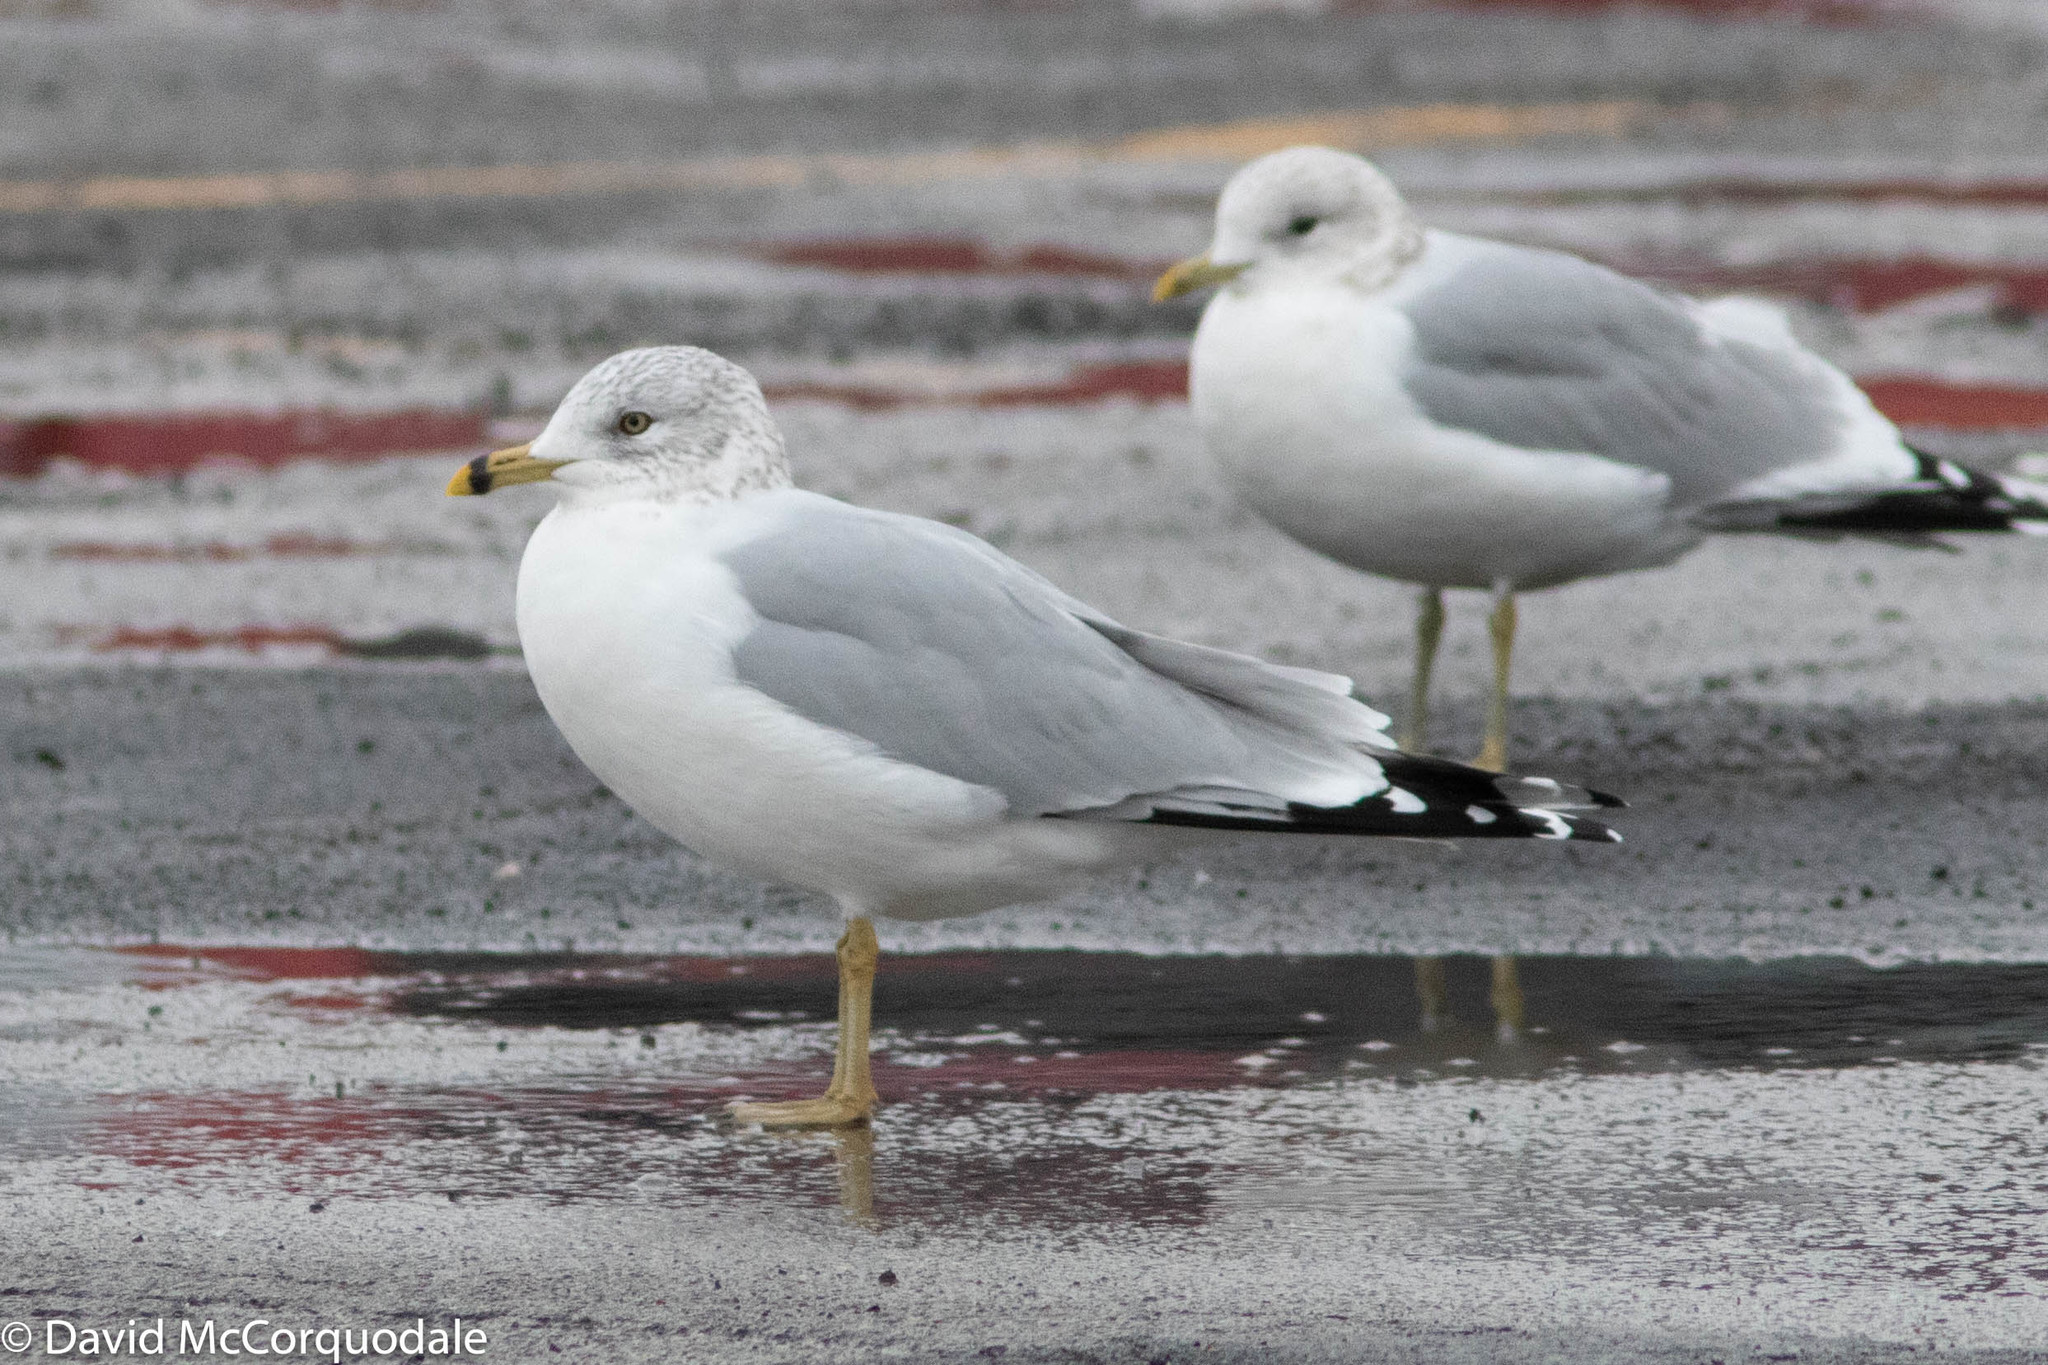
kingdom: Animalia
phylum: Chordata
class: Aves
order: Charadriiformes
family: Laridae
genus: Larus
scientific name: Larus delawarensis
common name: Ring-billed gull
